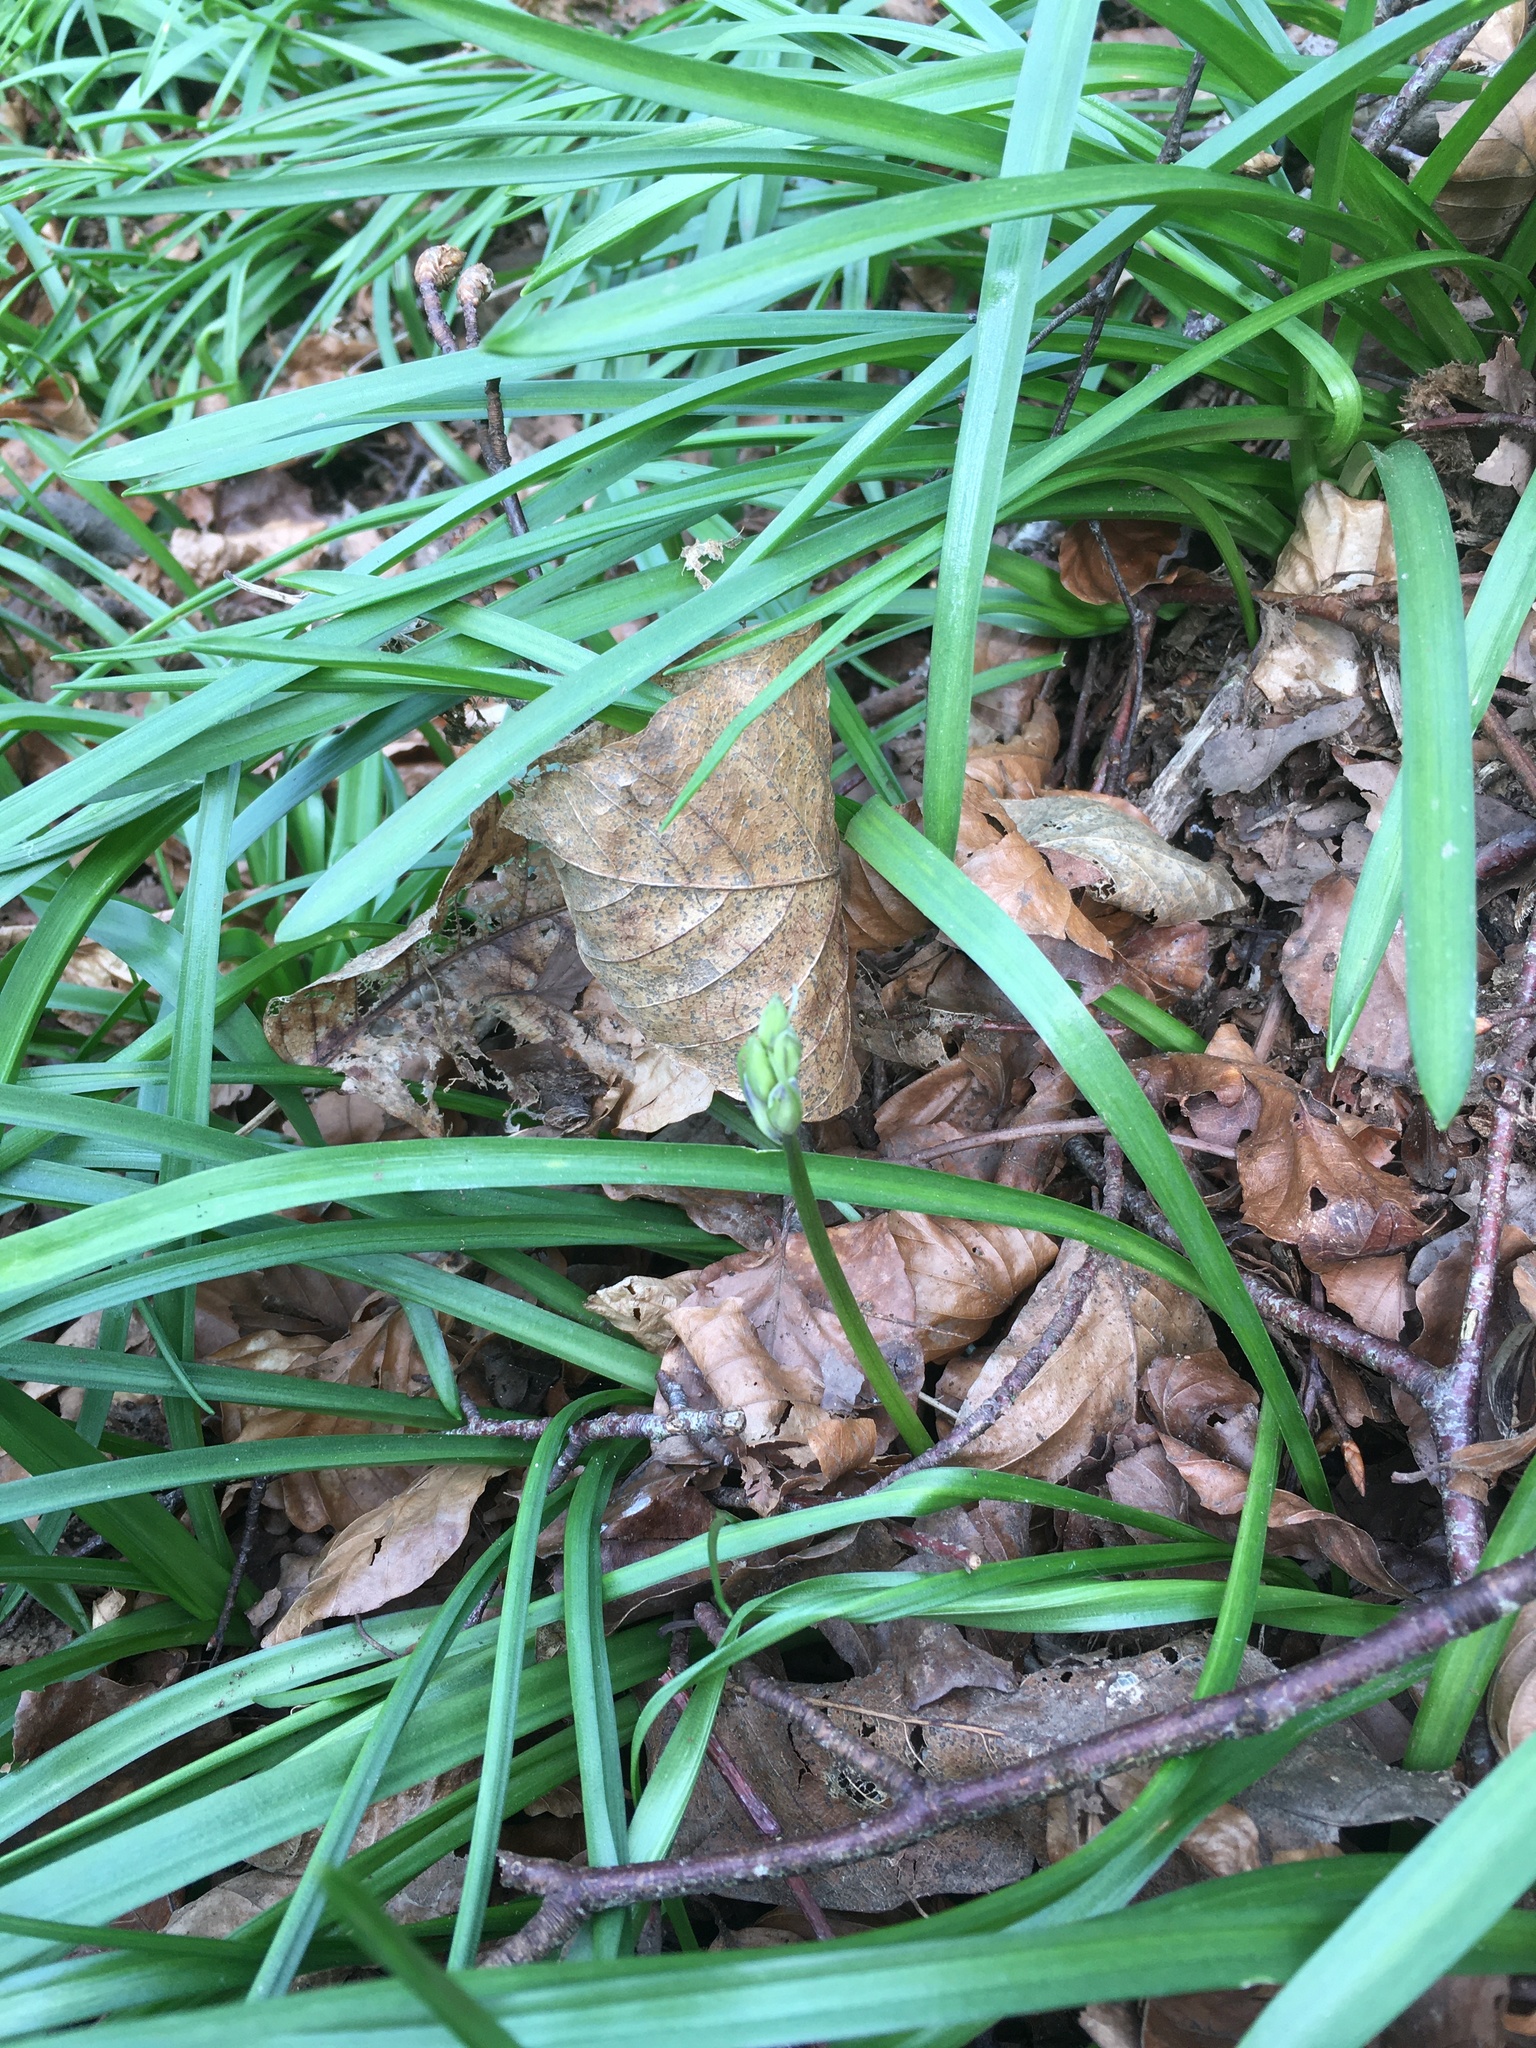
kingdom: Plantae
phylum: Tracheophyta
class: Liliopsida
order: Asparagales
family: Asparagaceae
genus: Hyacinthoides
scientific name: Hyacinthoides non-scripta
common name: Bluebell
